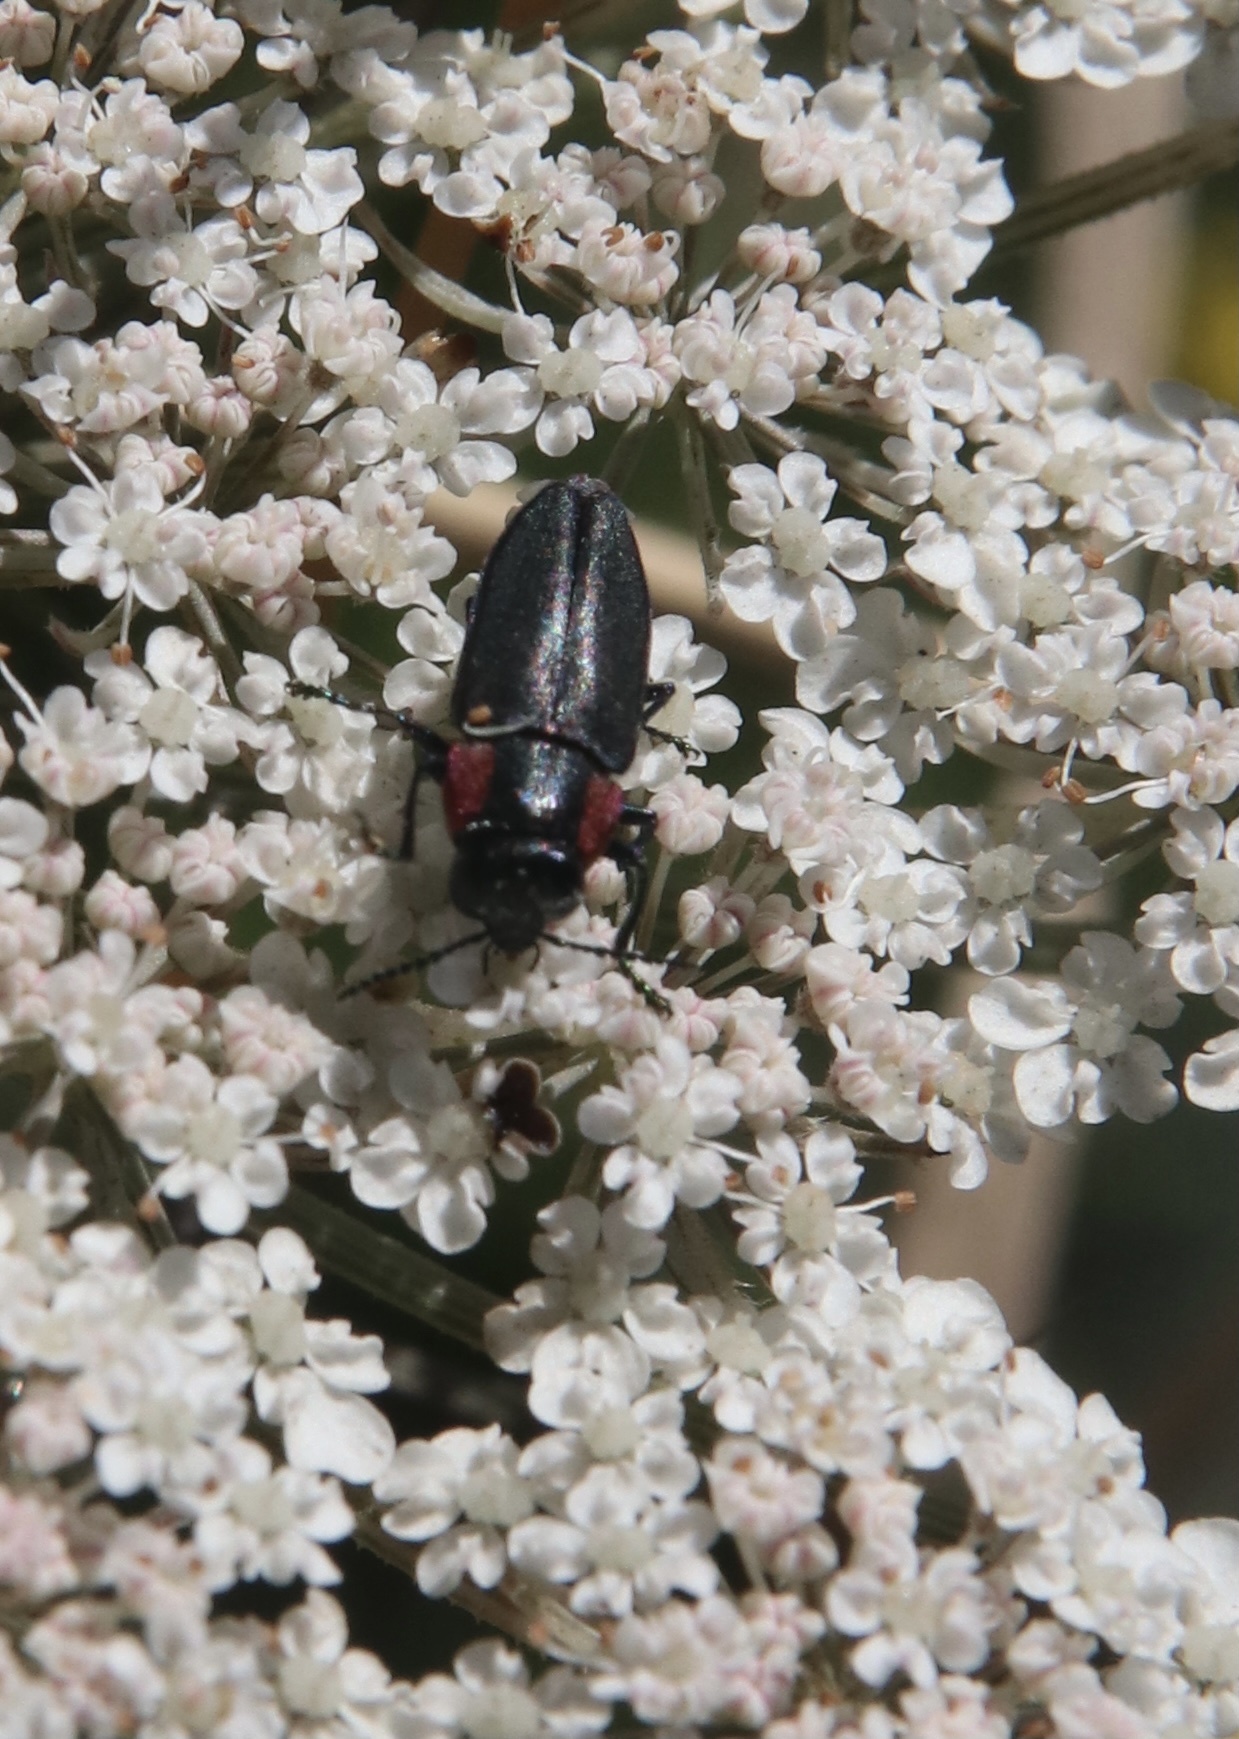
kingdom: Animalia
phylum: Arthropoda
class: Insecta
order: Coleoptera
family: Buprestidae
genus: Romanophora
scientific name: Romanophora verecunda
